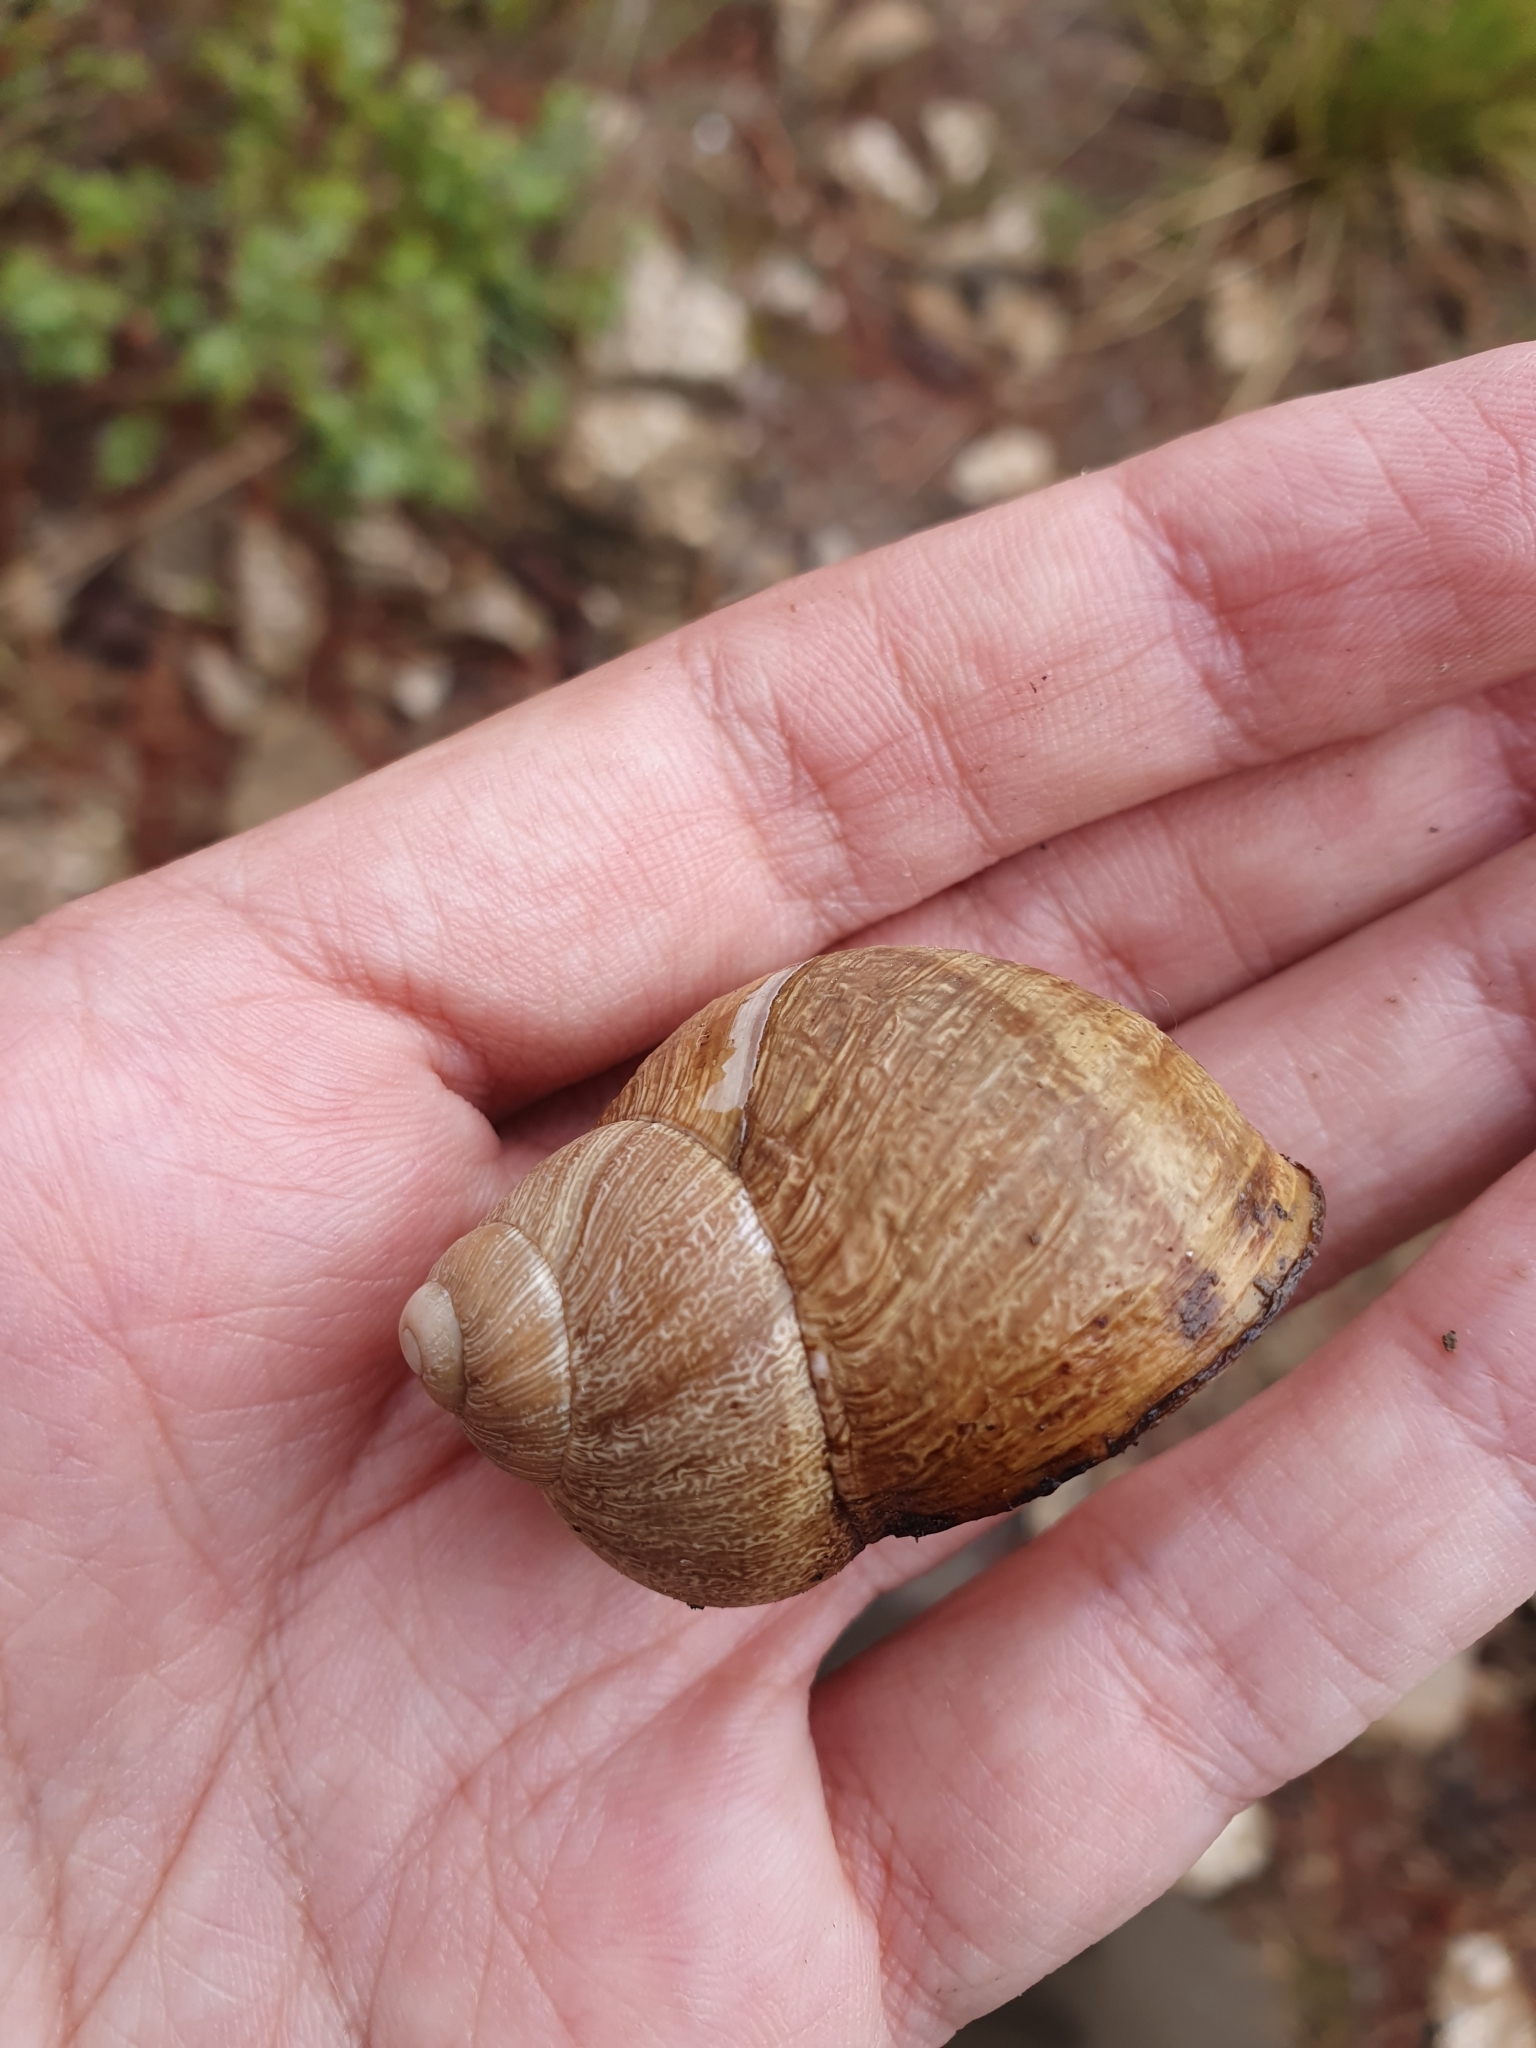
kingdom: Animalia
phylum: Mollusca
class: Gastropoda
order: Stylommatophora
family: Helicidae
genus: Cornu
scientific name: Cornu aspersum
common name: Brown garden snail
